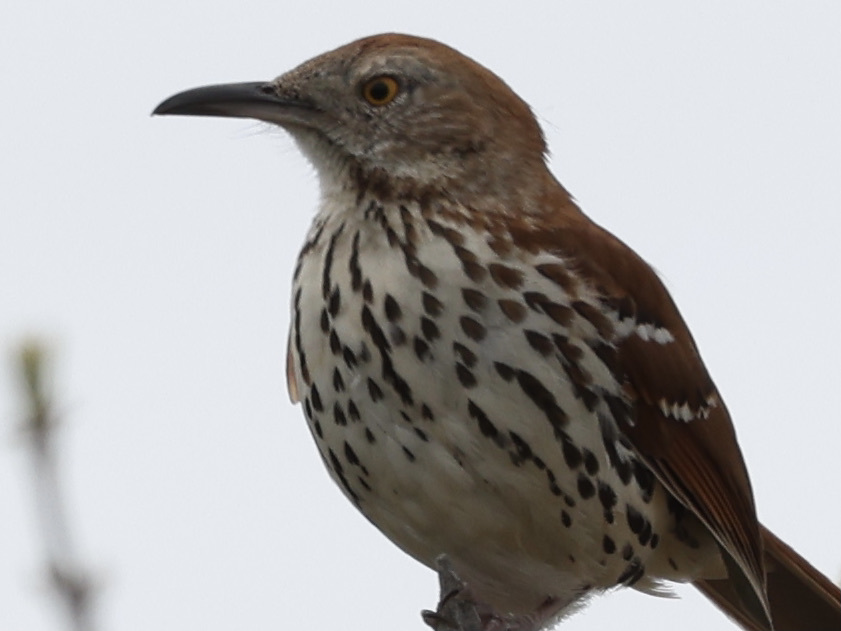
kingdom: Animalia
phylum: Chordata
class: Aves
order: Passeriformes
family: Mimidae
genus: Toxostoma
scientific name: Toxostoma rufum
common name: Brown thrasher
